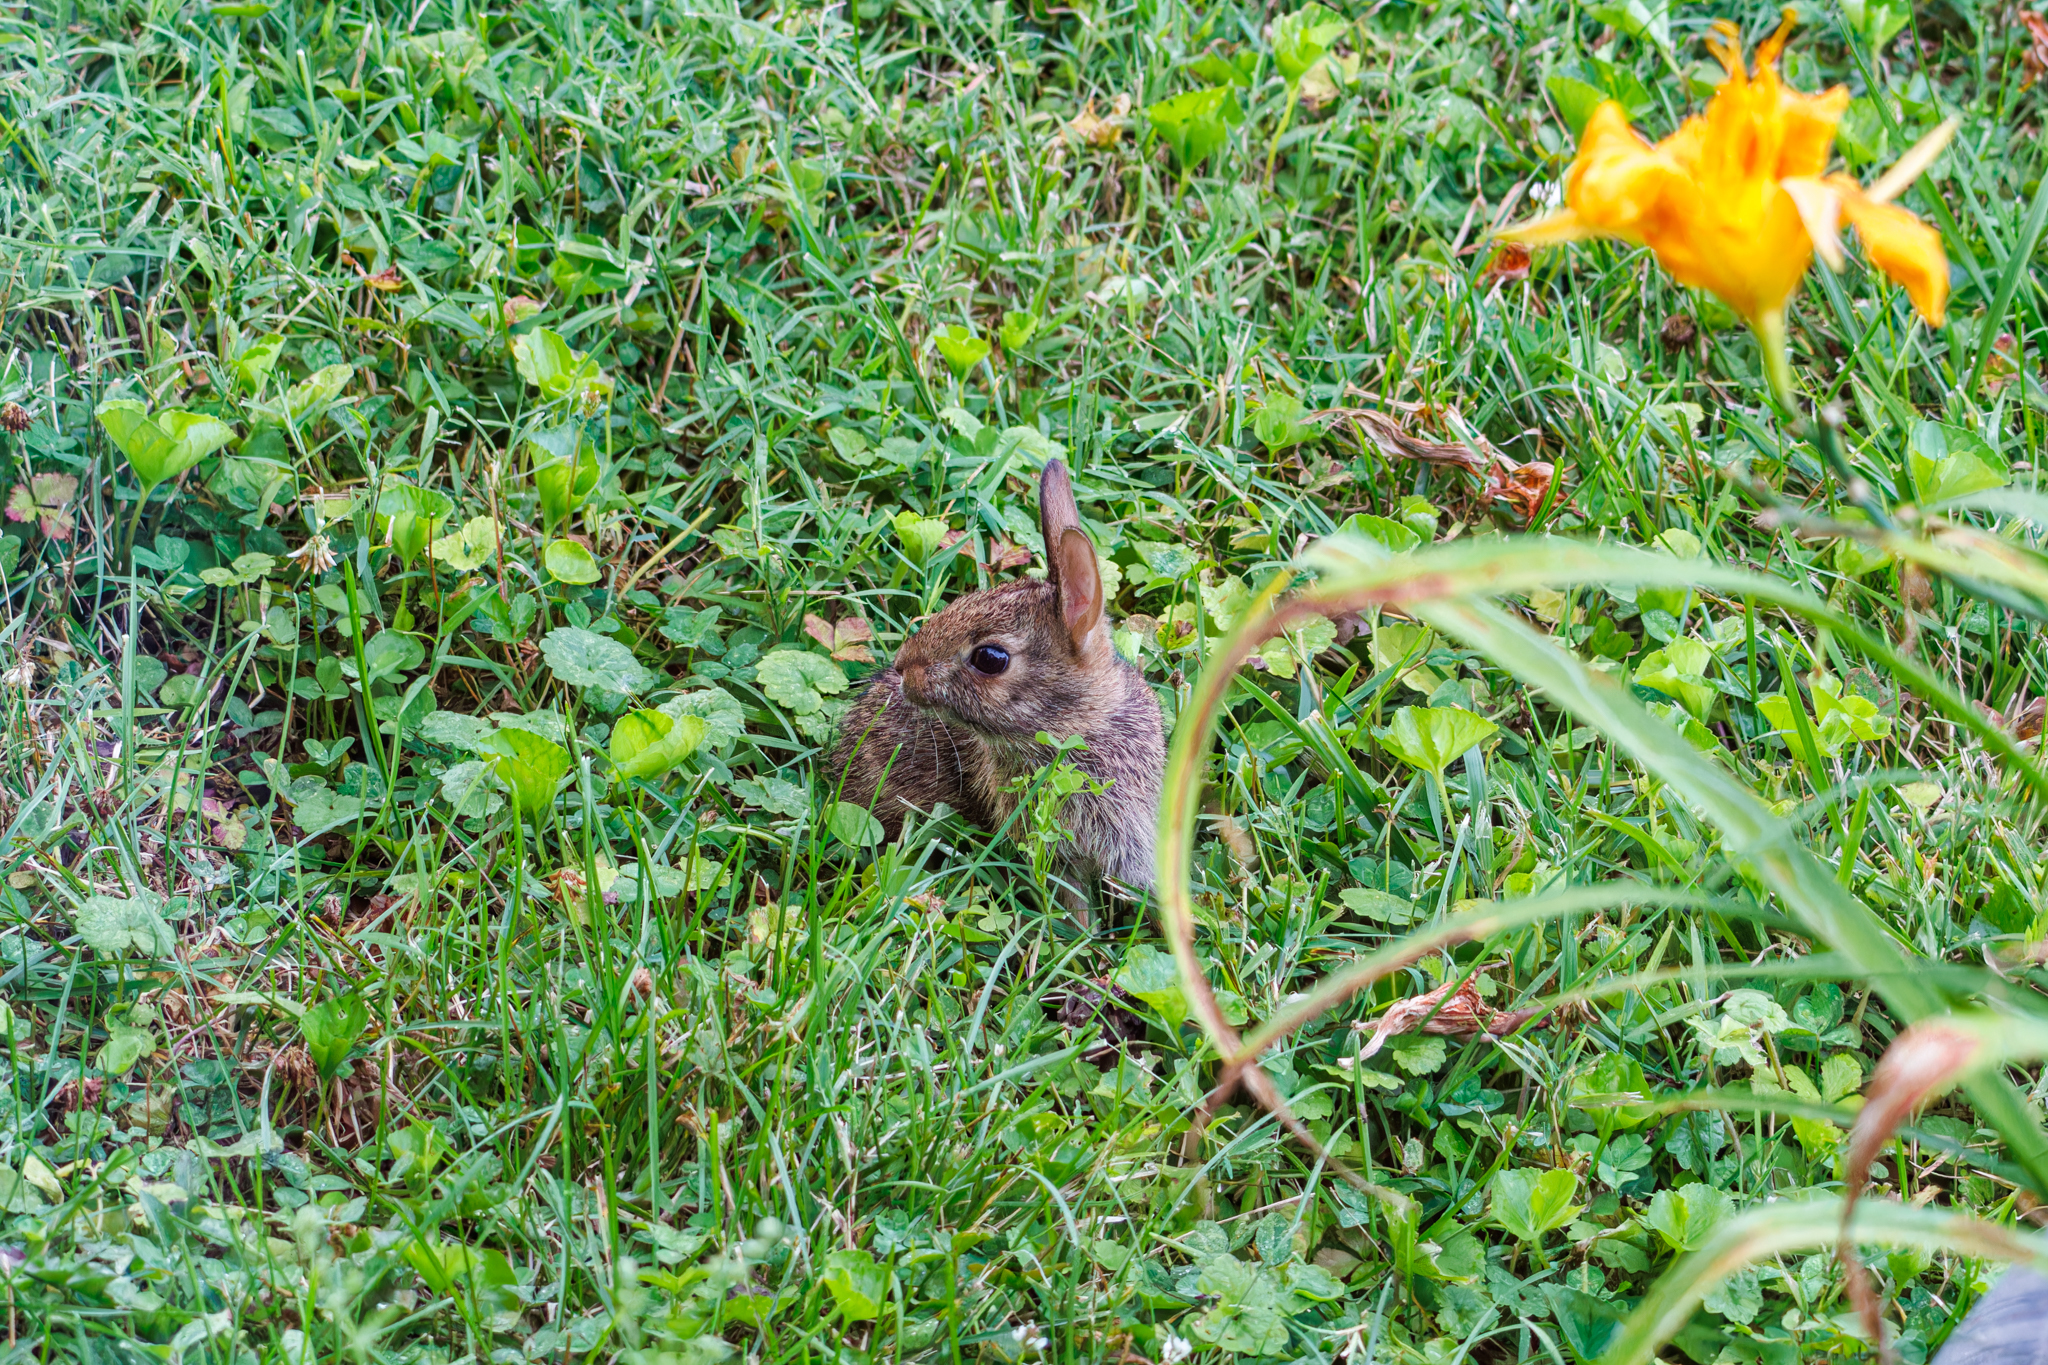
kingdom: Animalia
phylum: Chordata
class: Mammalia
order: Lagomorpha
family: Leporidae
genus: Sylvilagus
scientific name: Sylvilagus floridanus
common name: Eastern cottontail
